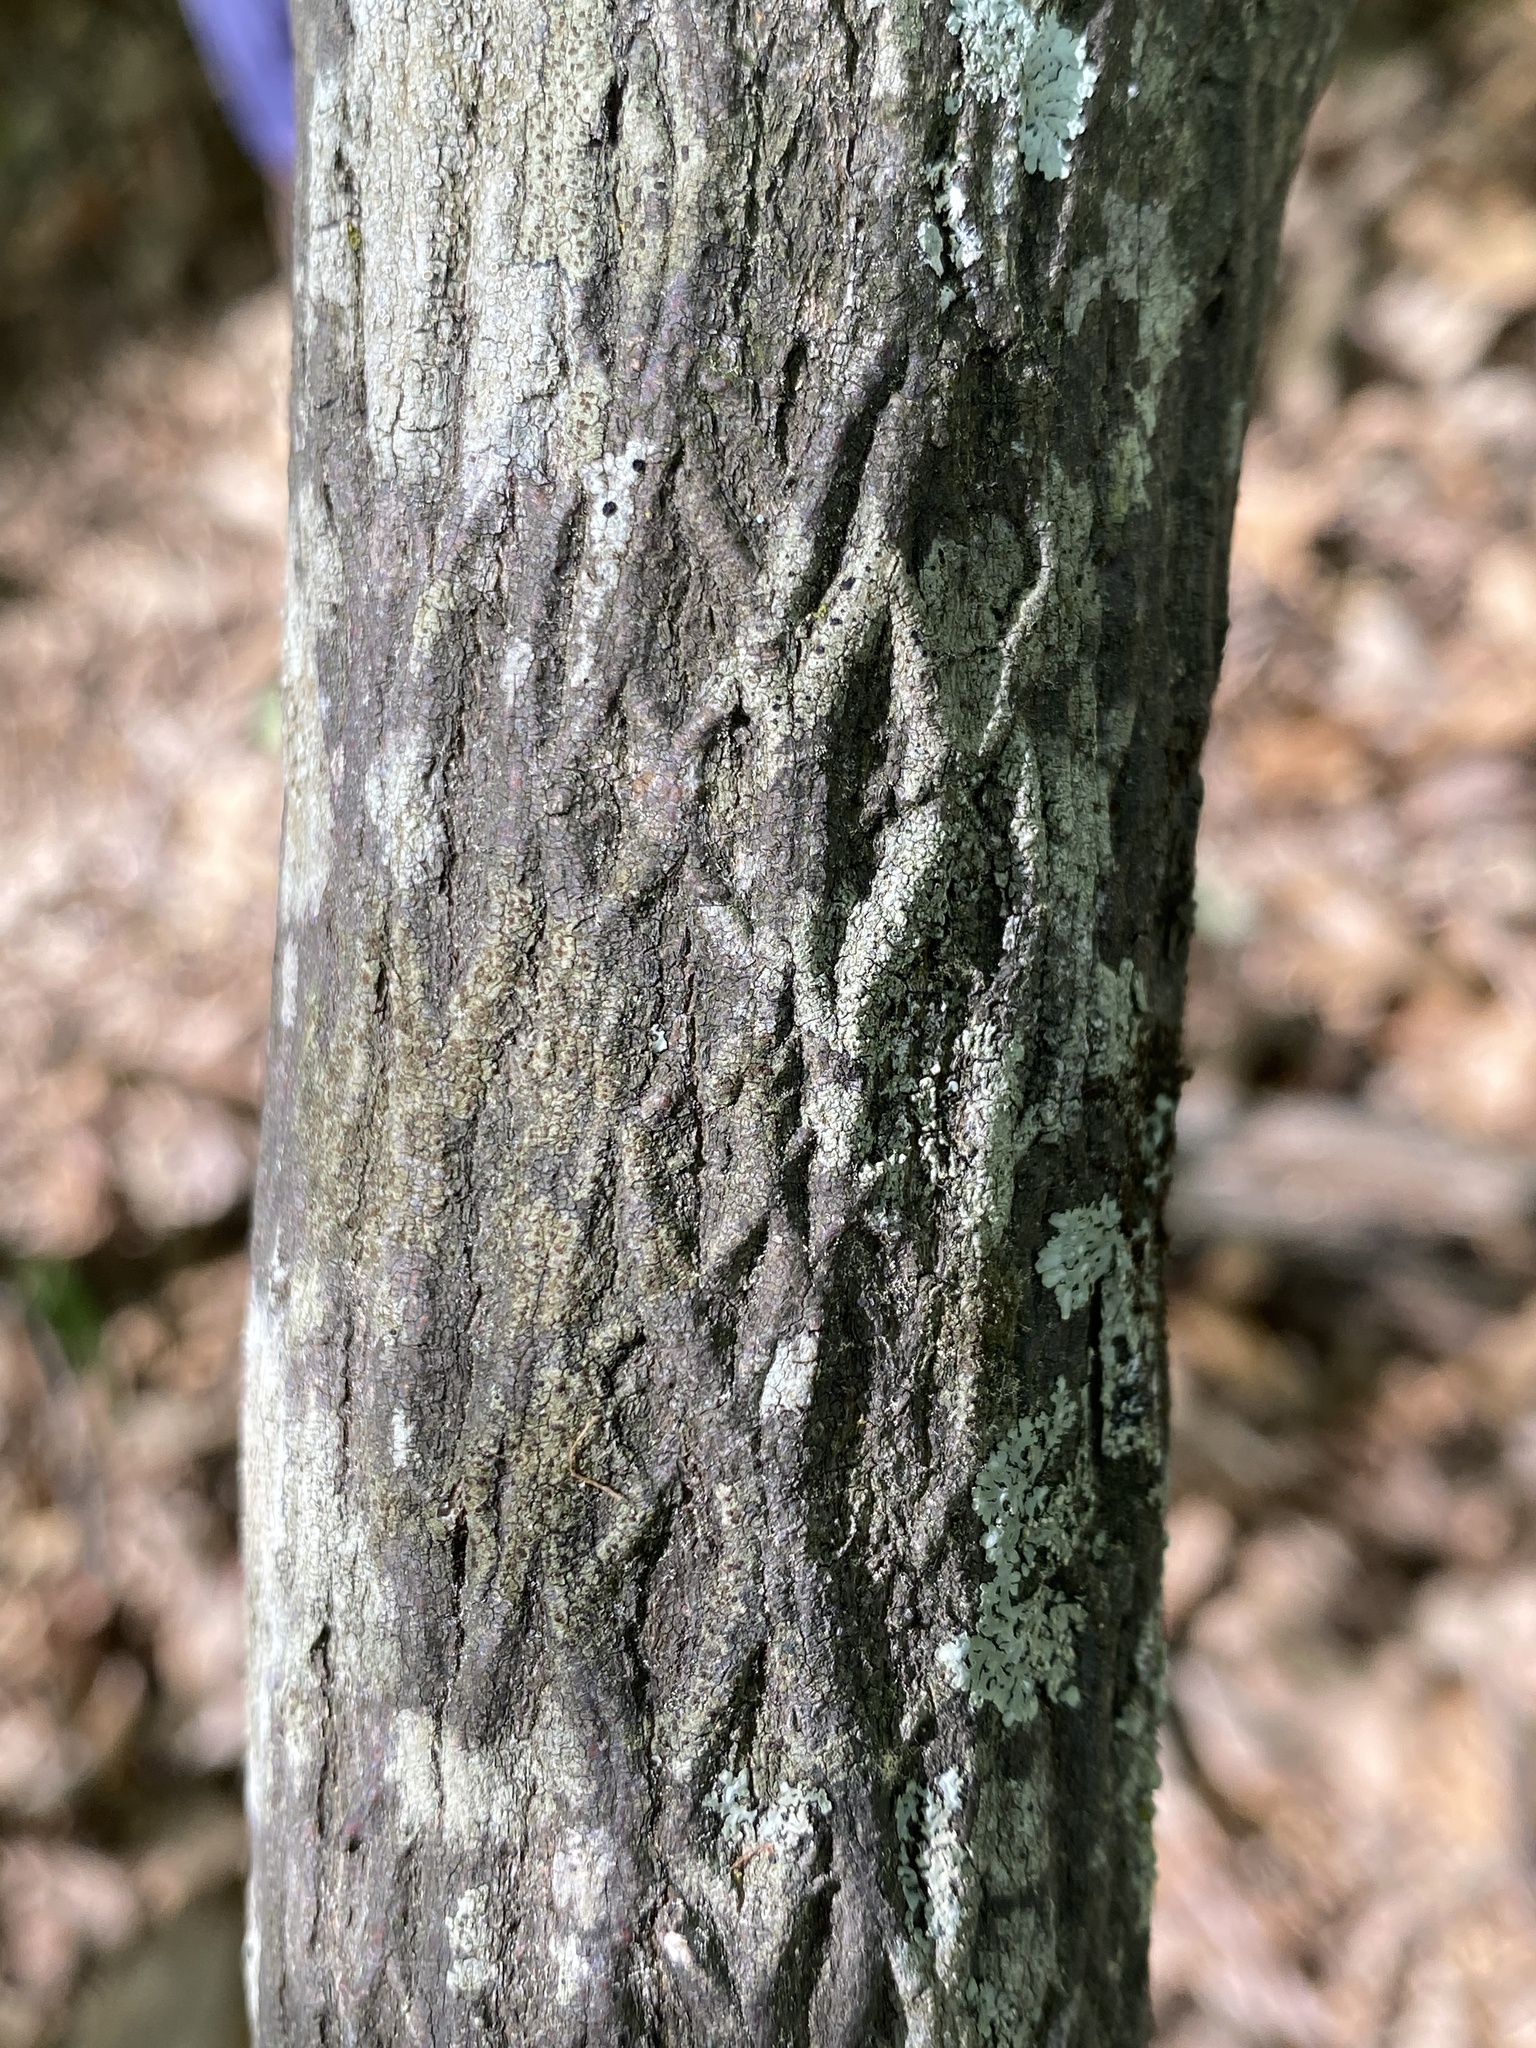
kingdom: Plantae
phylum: Tracheophyta
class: Magnoliopsida
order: Ericales
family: Styracaceae
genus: Styrax
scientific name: Styrax grandifolius
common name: Big-leaf snowbell
